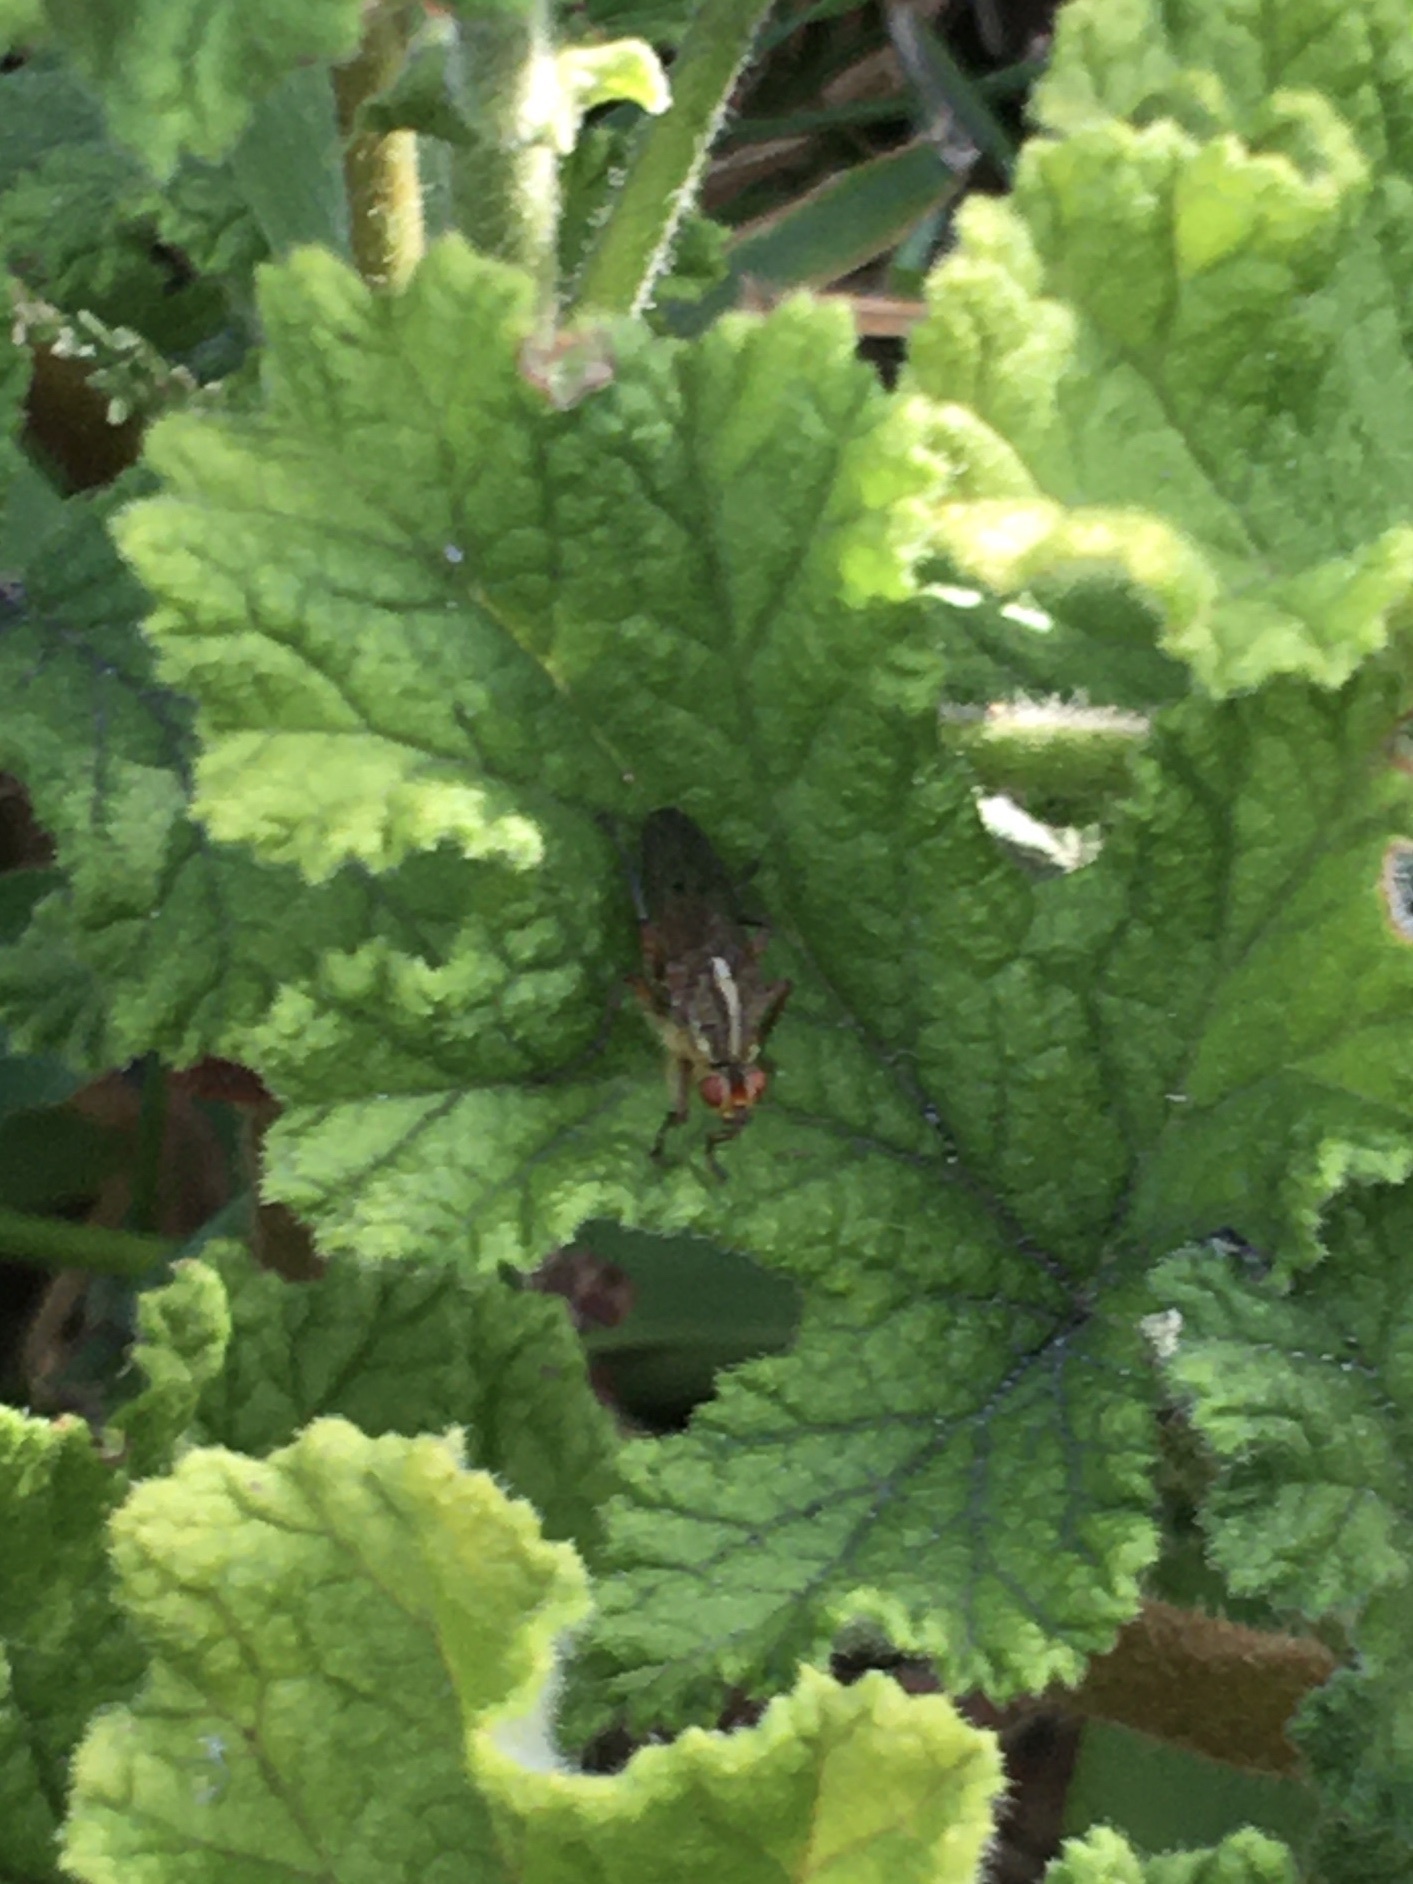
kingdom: Animalia
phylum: Arthropoda
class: Insecta
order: Diptera
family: Scathophagidae
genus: Scathophaga
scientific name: Scathophaga soror
